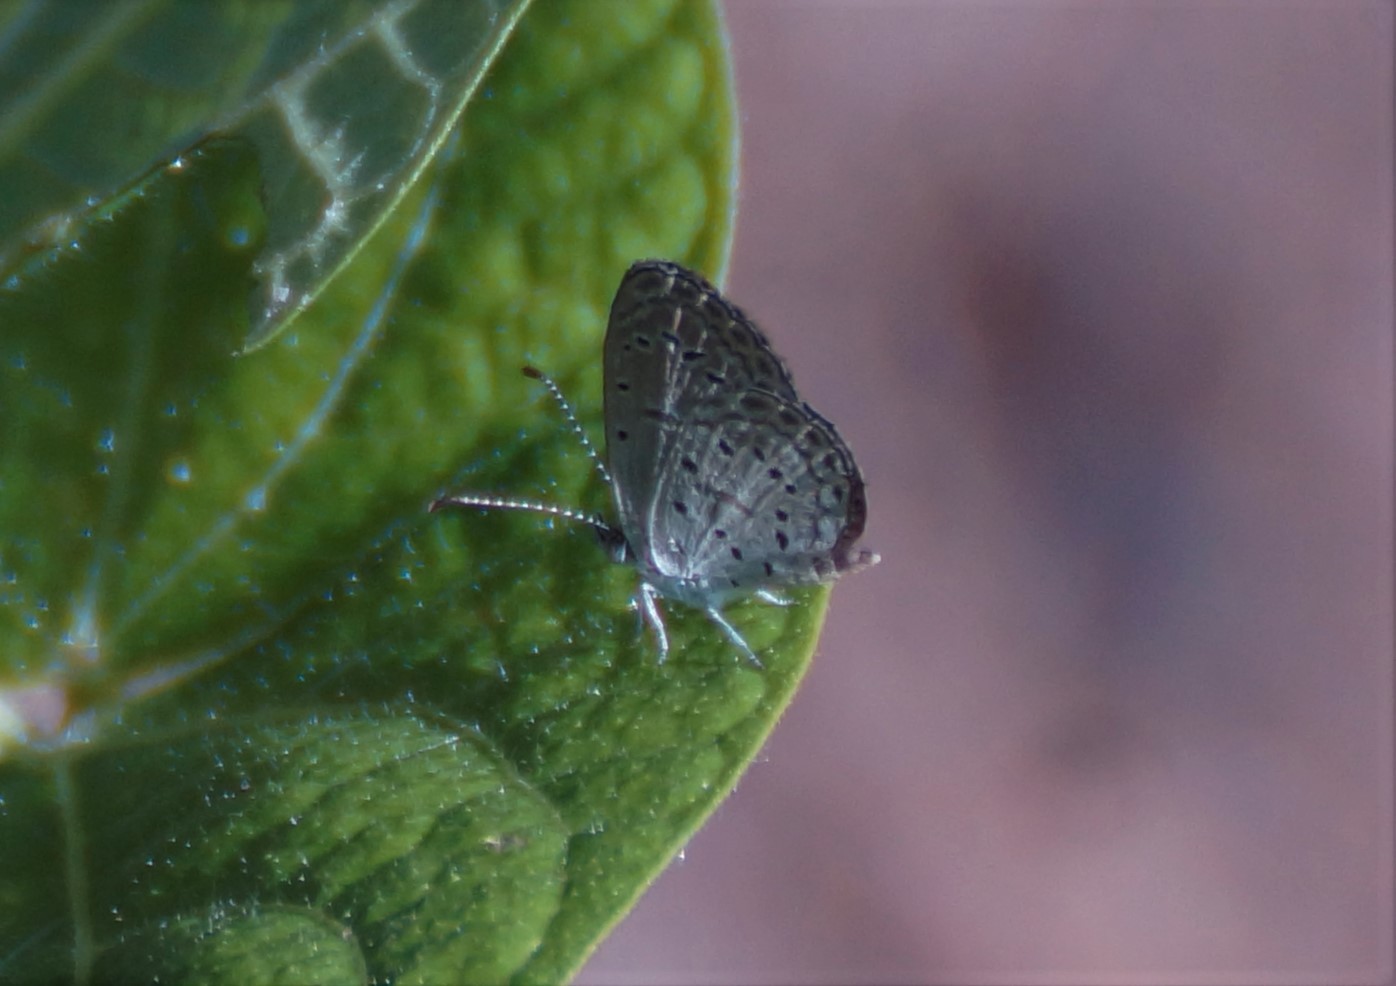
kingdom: Animalia
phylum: Arthropoda
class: Insecta
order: Lepidoptera
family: Lycaenidae
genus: Zizula
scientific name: Zizula hylax
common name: Gaika blue
